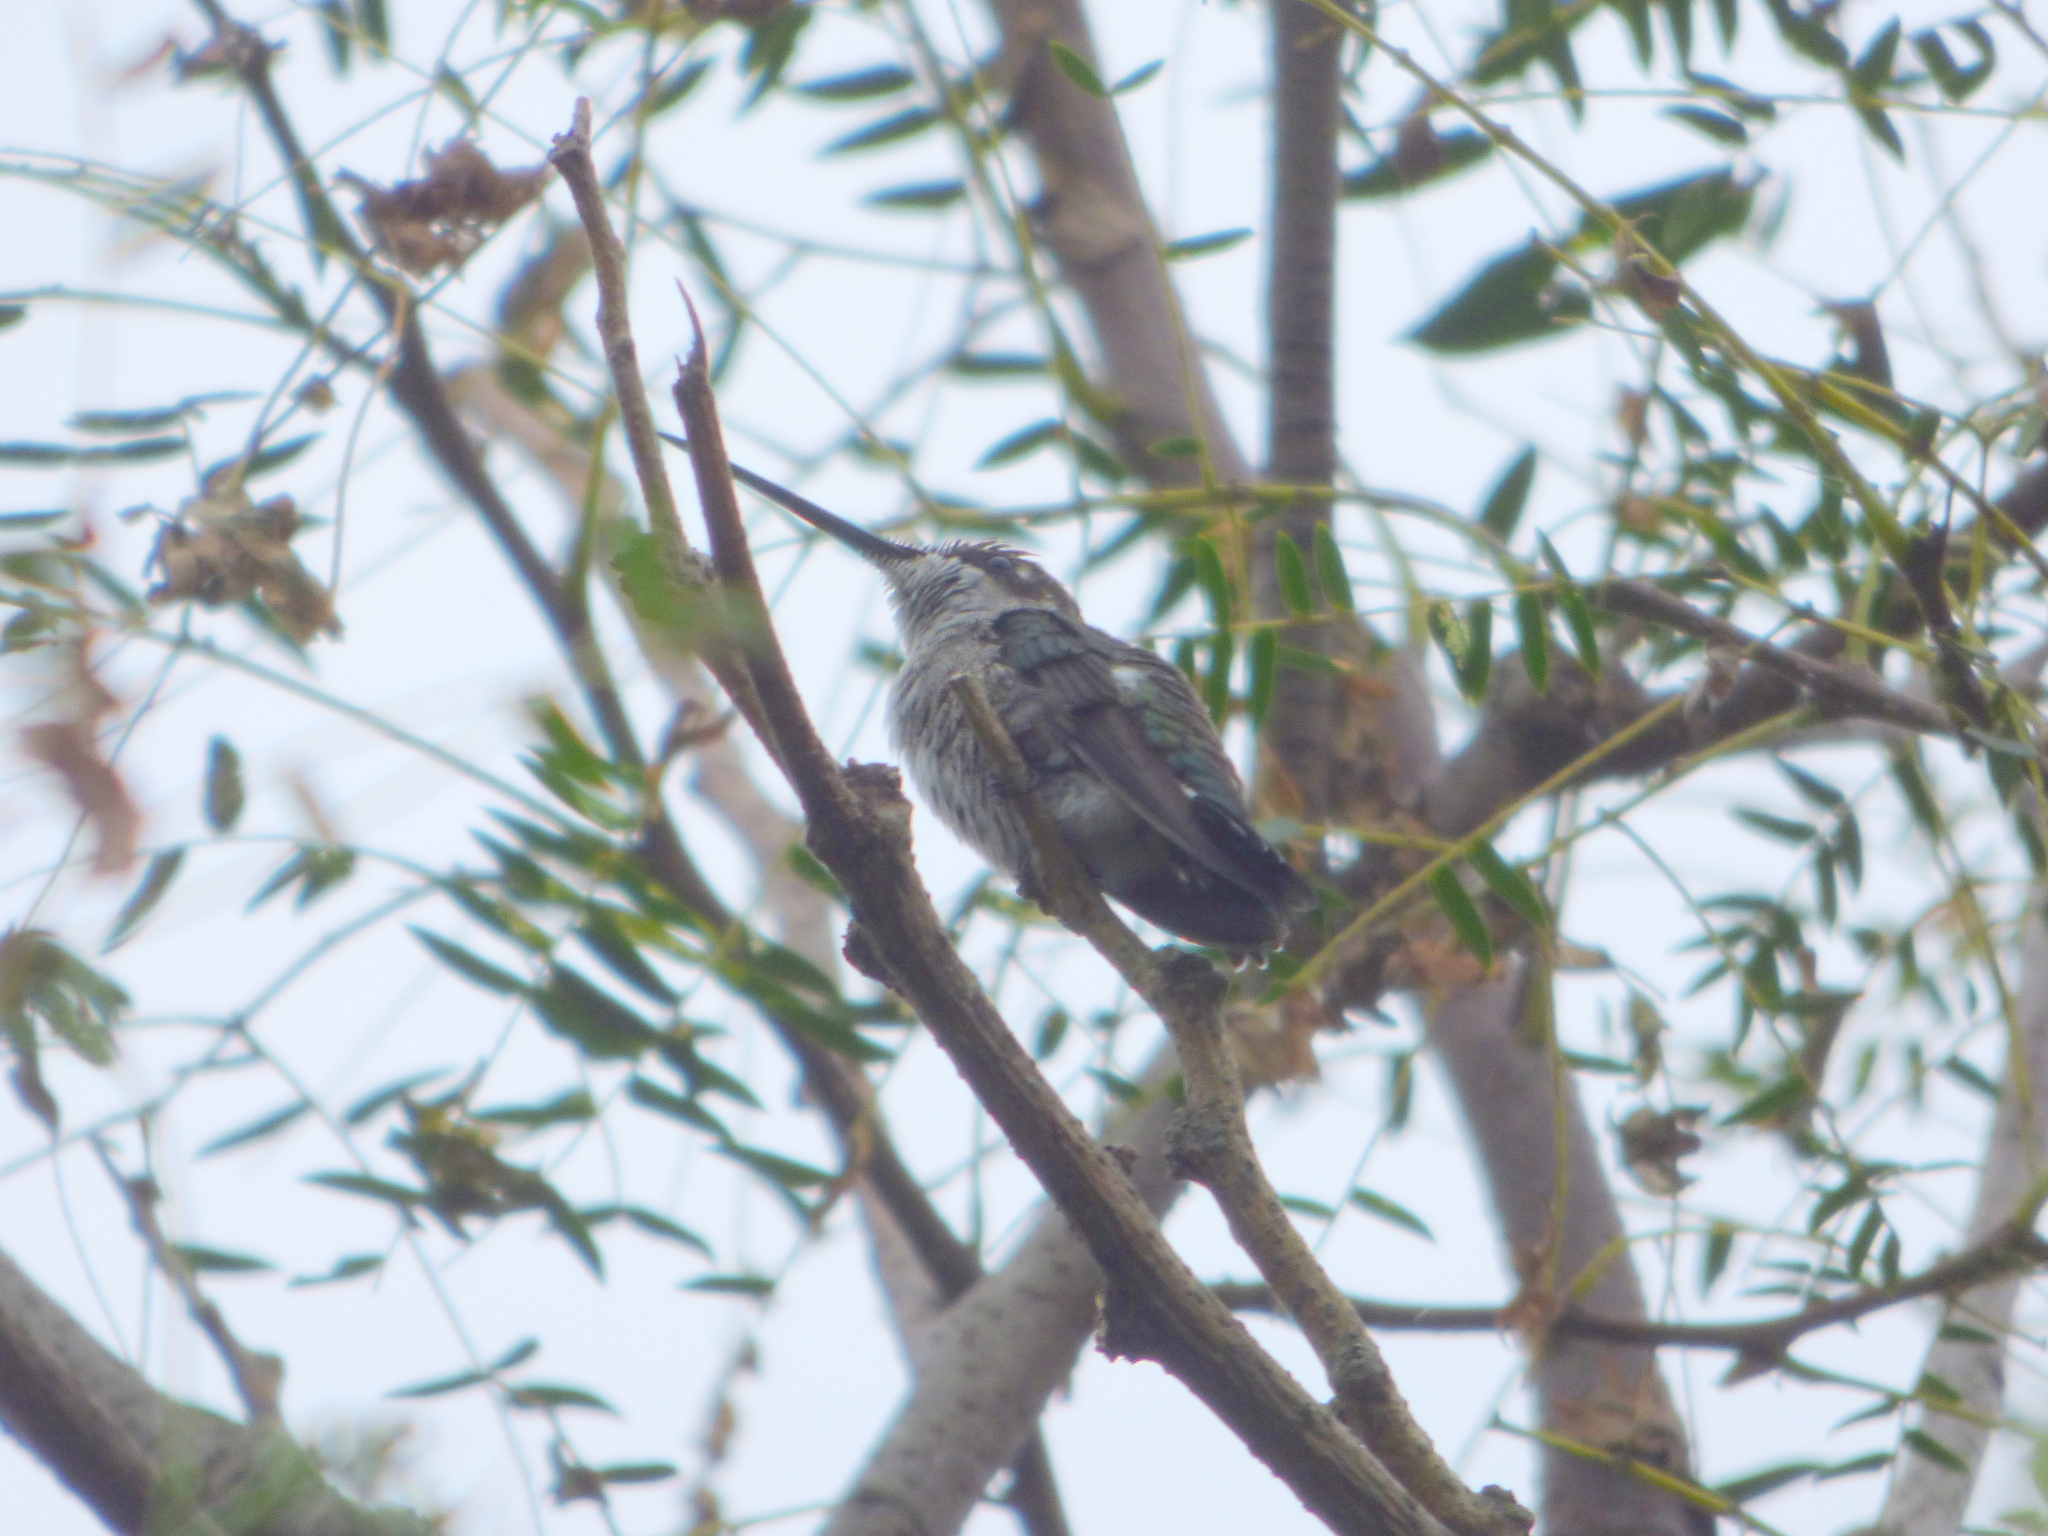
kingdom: Animalia
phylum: Chordata
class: Aves
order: Apodiformes
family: Trochilidae
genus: Heliomaster
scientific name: Heliomaster furcifer
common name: Blue-tufted starthroat
